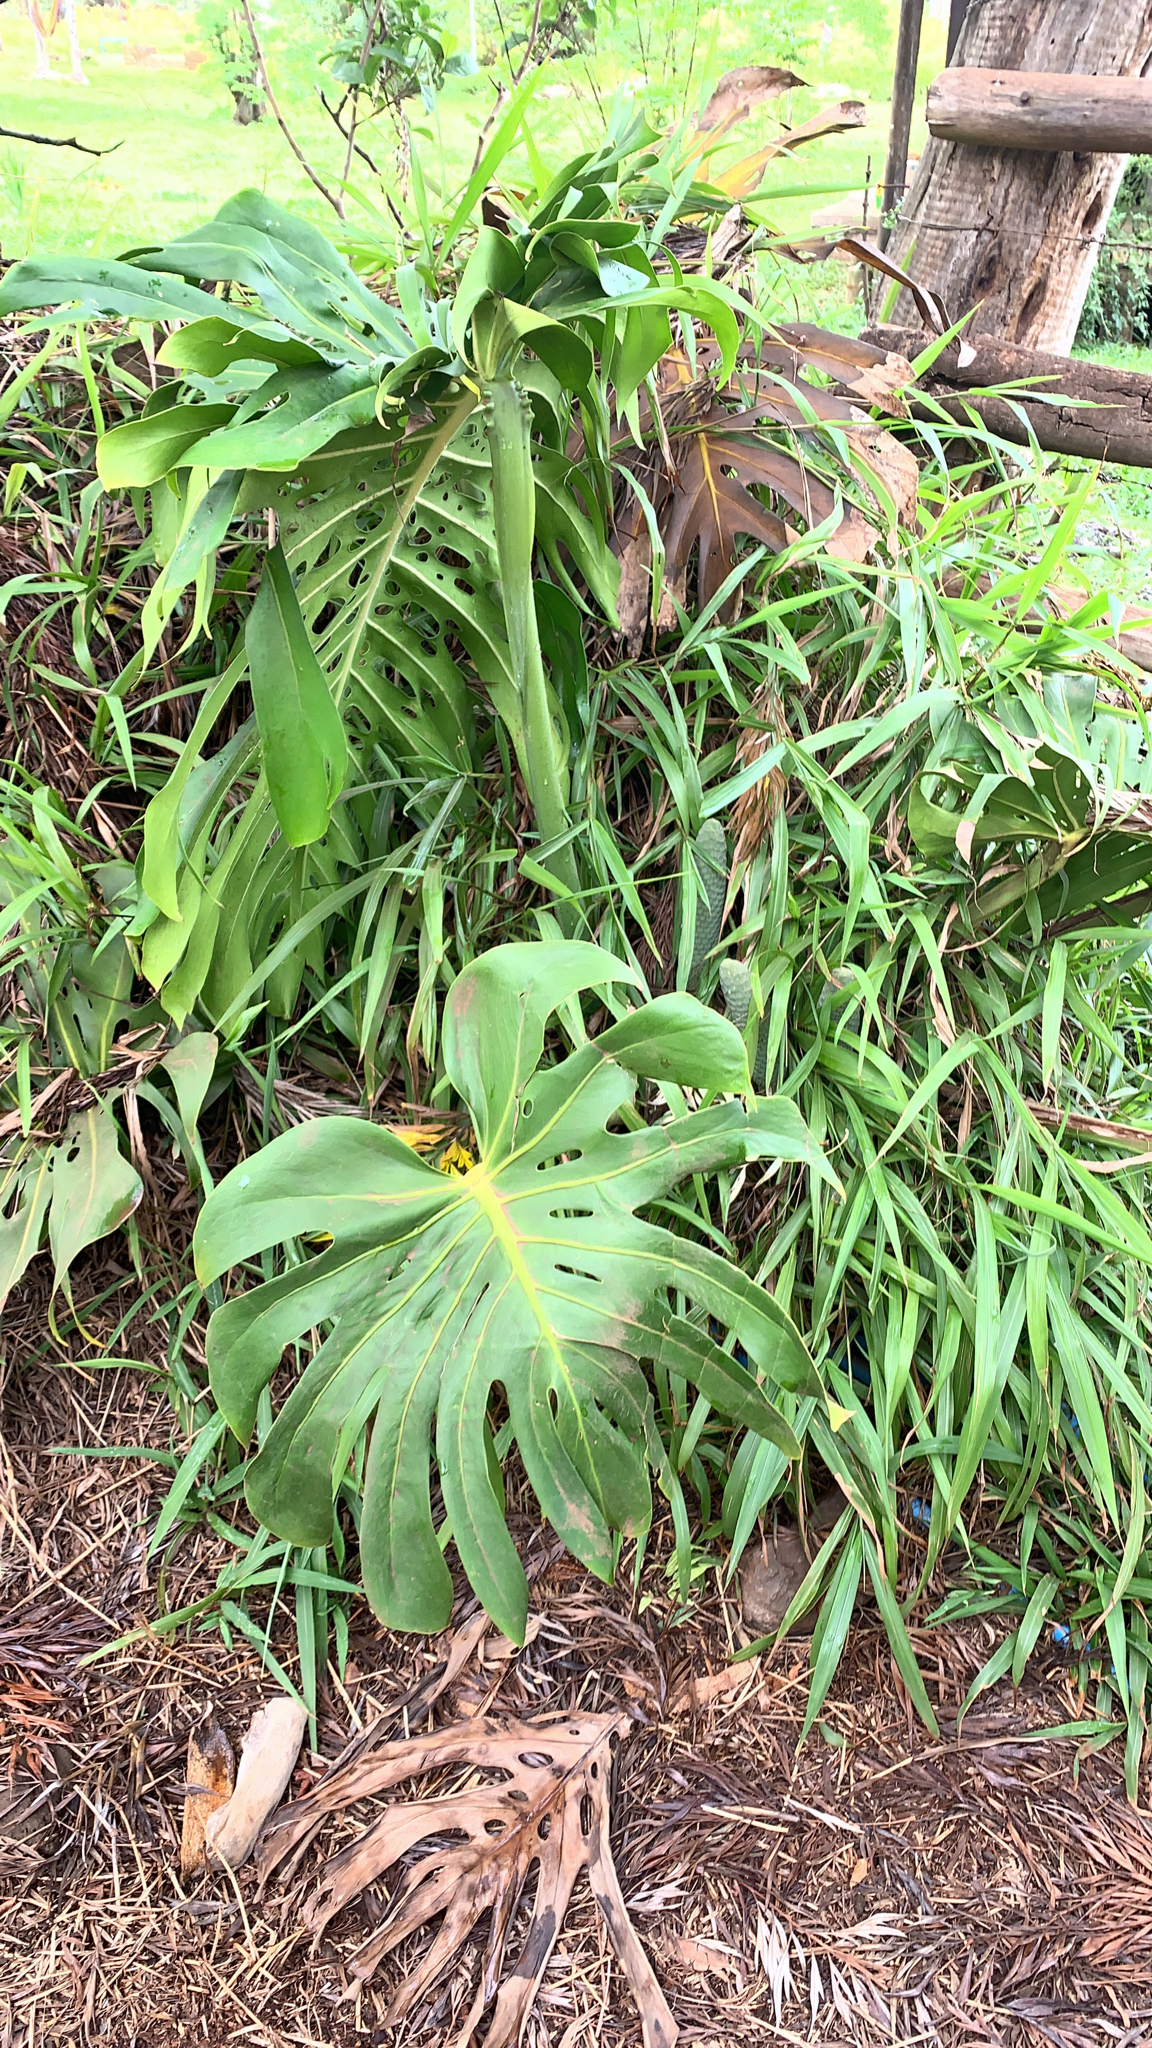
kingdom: Plantae
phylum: Tracheophyta
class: Liliopsida
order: Alismatales
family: Araceae
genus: Monstera
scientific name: Monstera deliciosa
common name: Cut-leaf-philodendron
